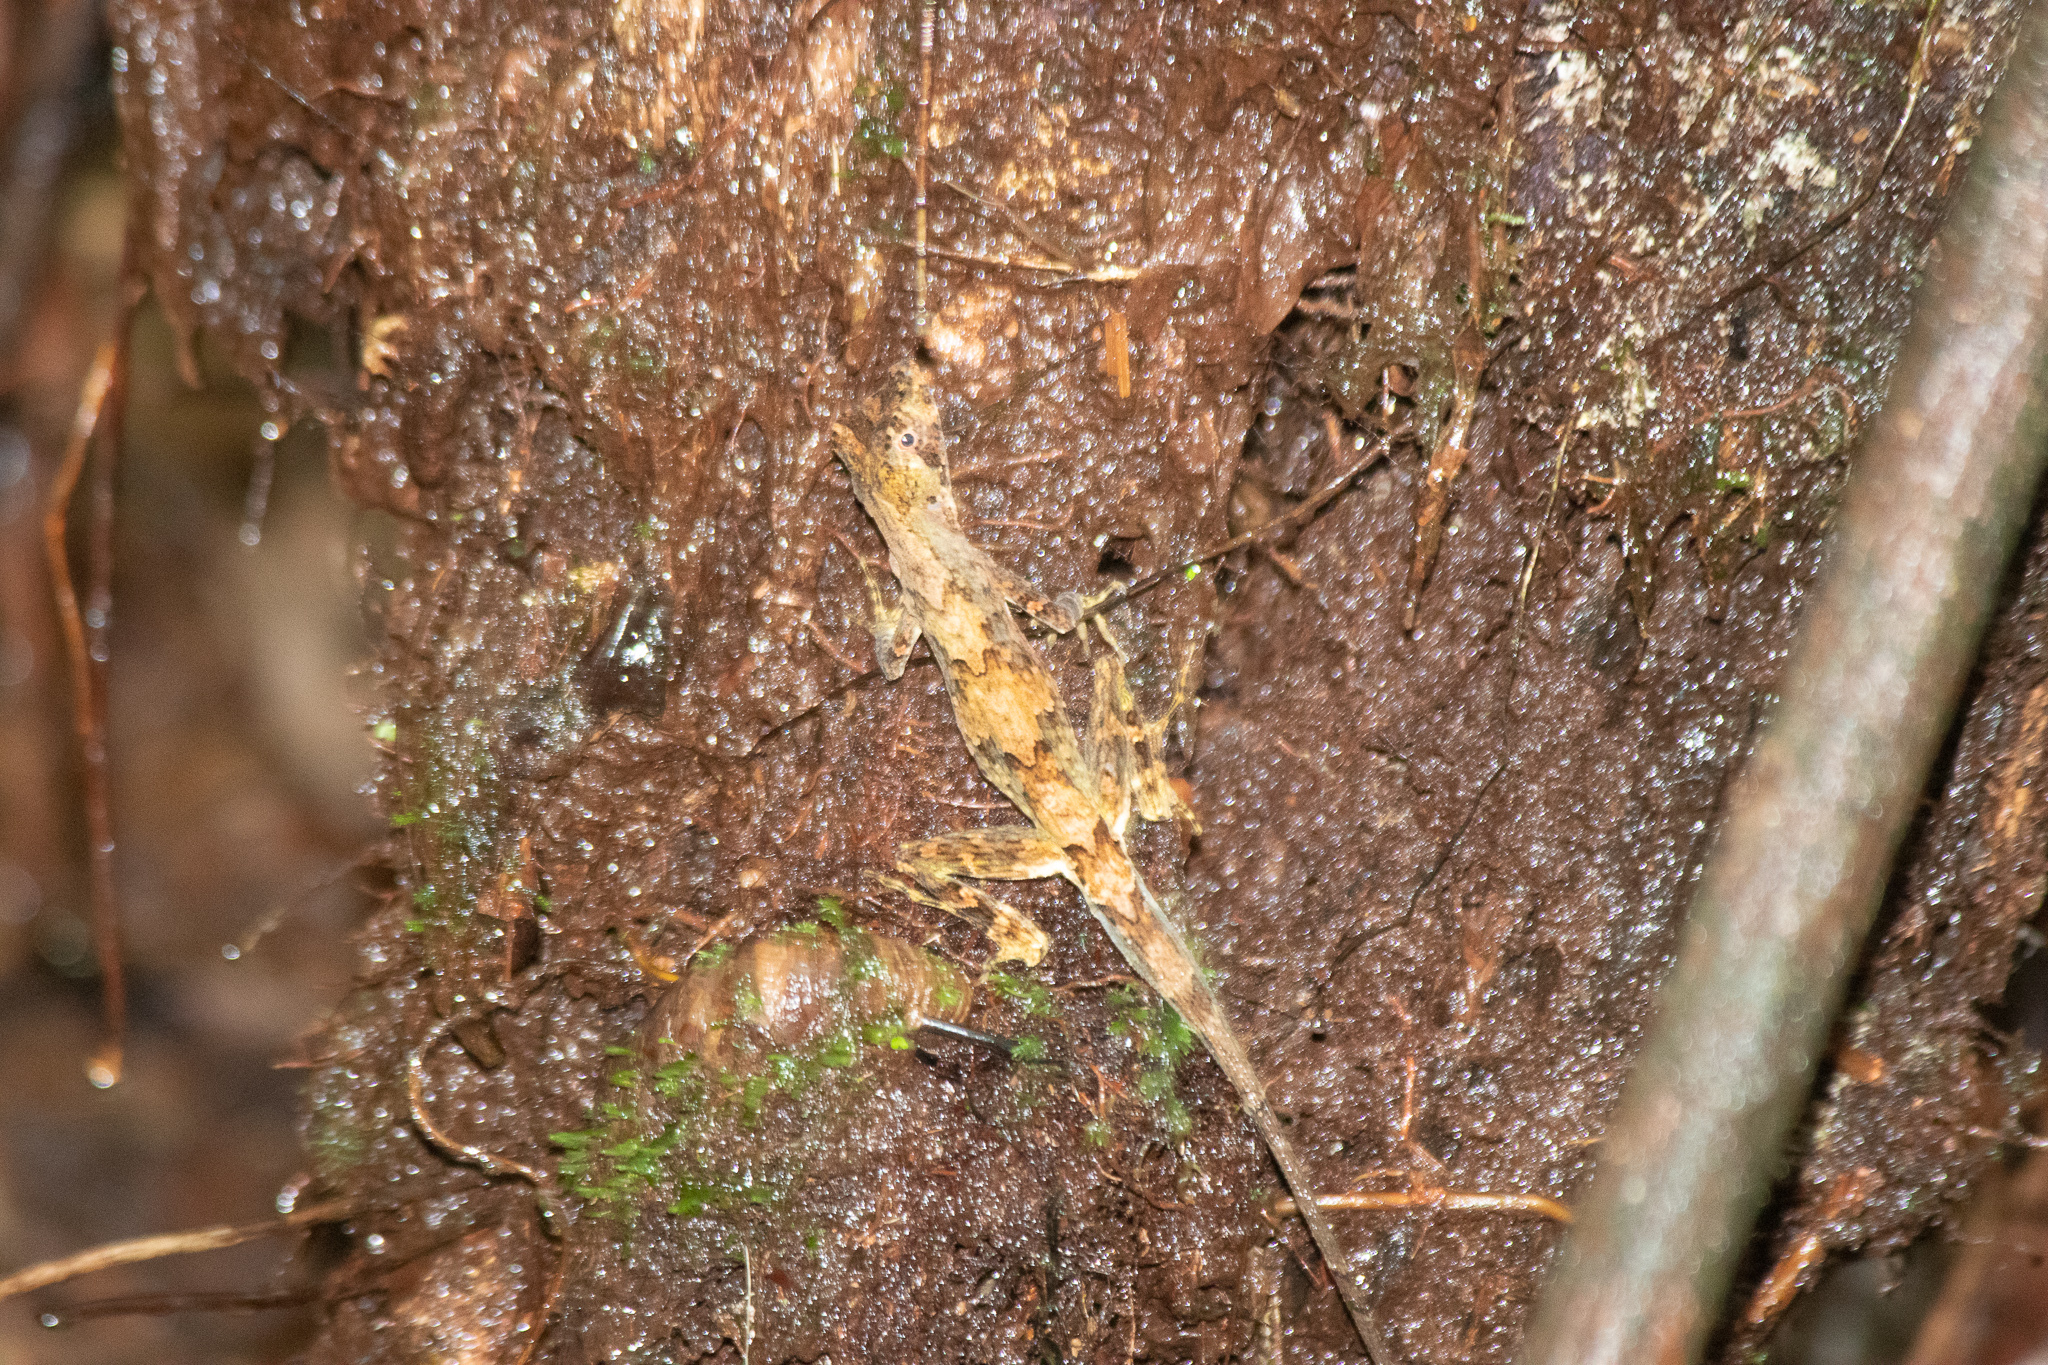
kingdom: Animalia
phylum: Chordata
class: Squamata
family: Dactyloidae
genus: Anolis
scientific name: Anolis capito
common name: Bighead anole
